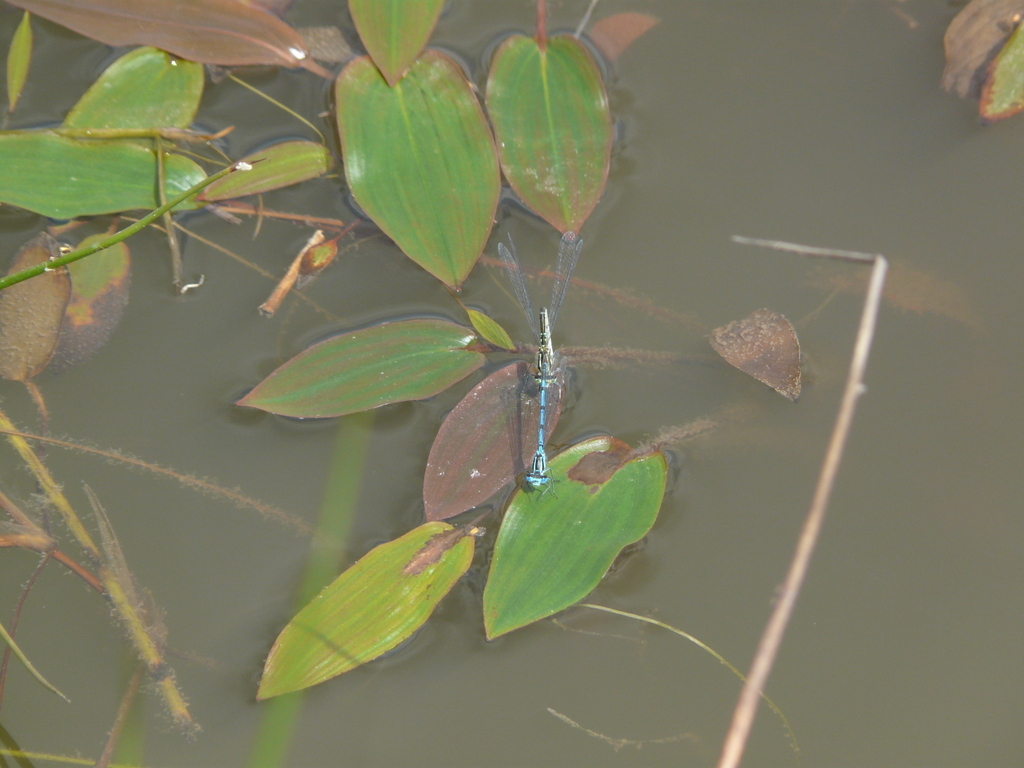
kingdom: Animalia
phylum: Arthropoda
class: Insecta
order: Odonata
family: Coenagrionidae
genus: Coenagrion
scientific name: Coenagrion puella
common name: Azure damselfly
